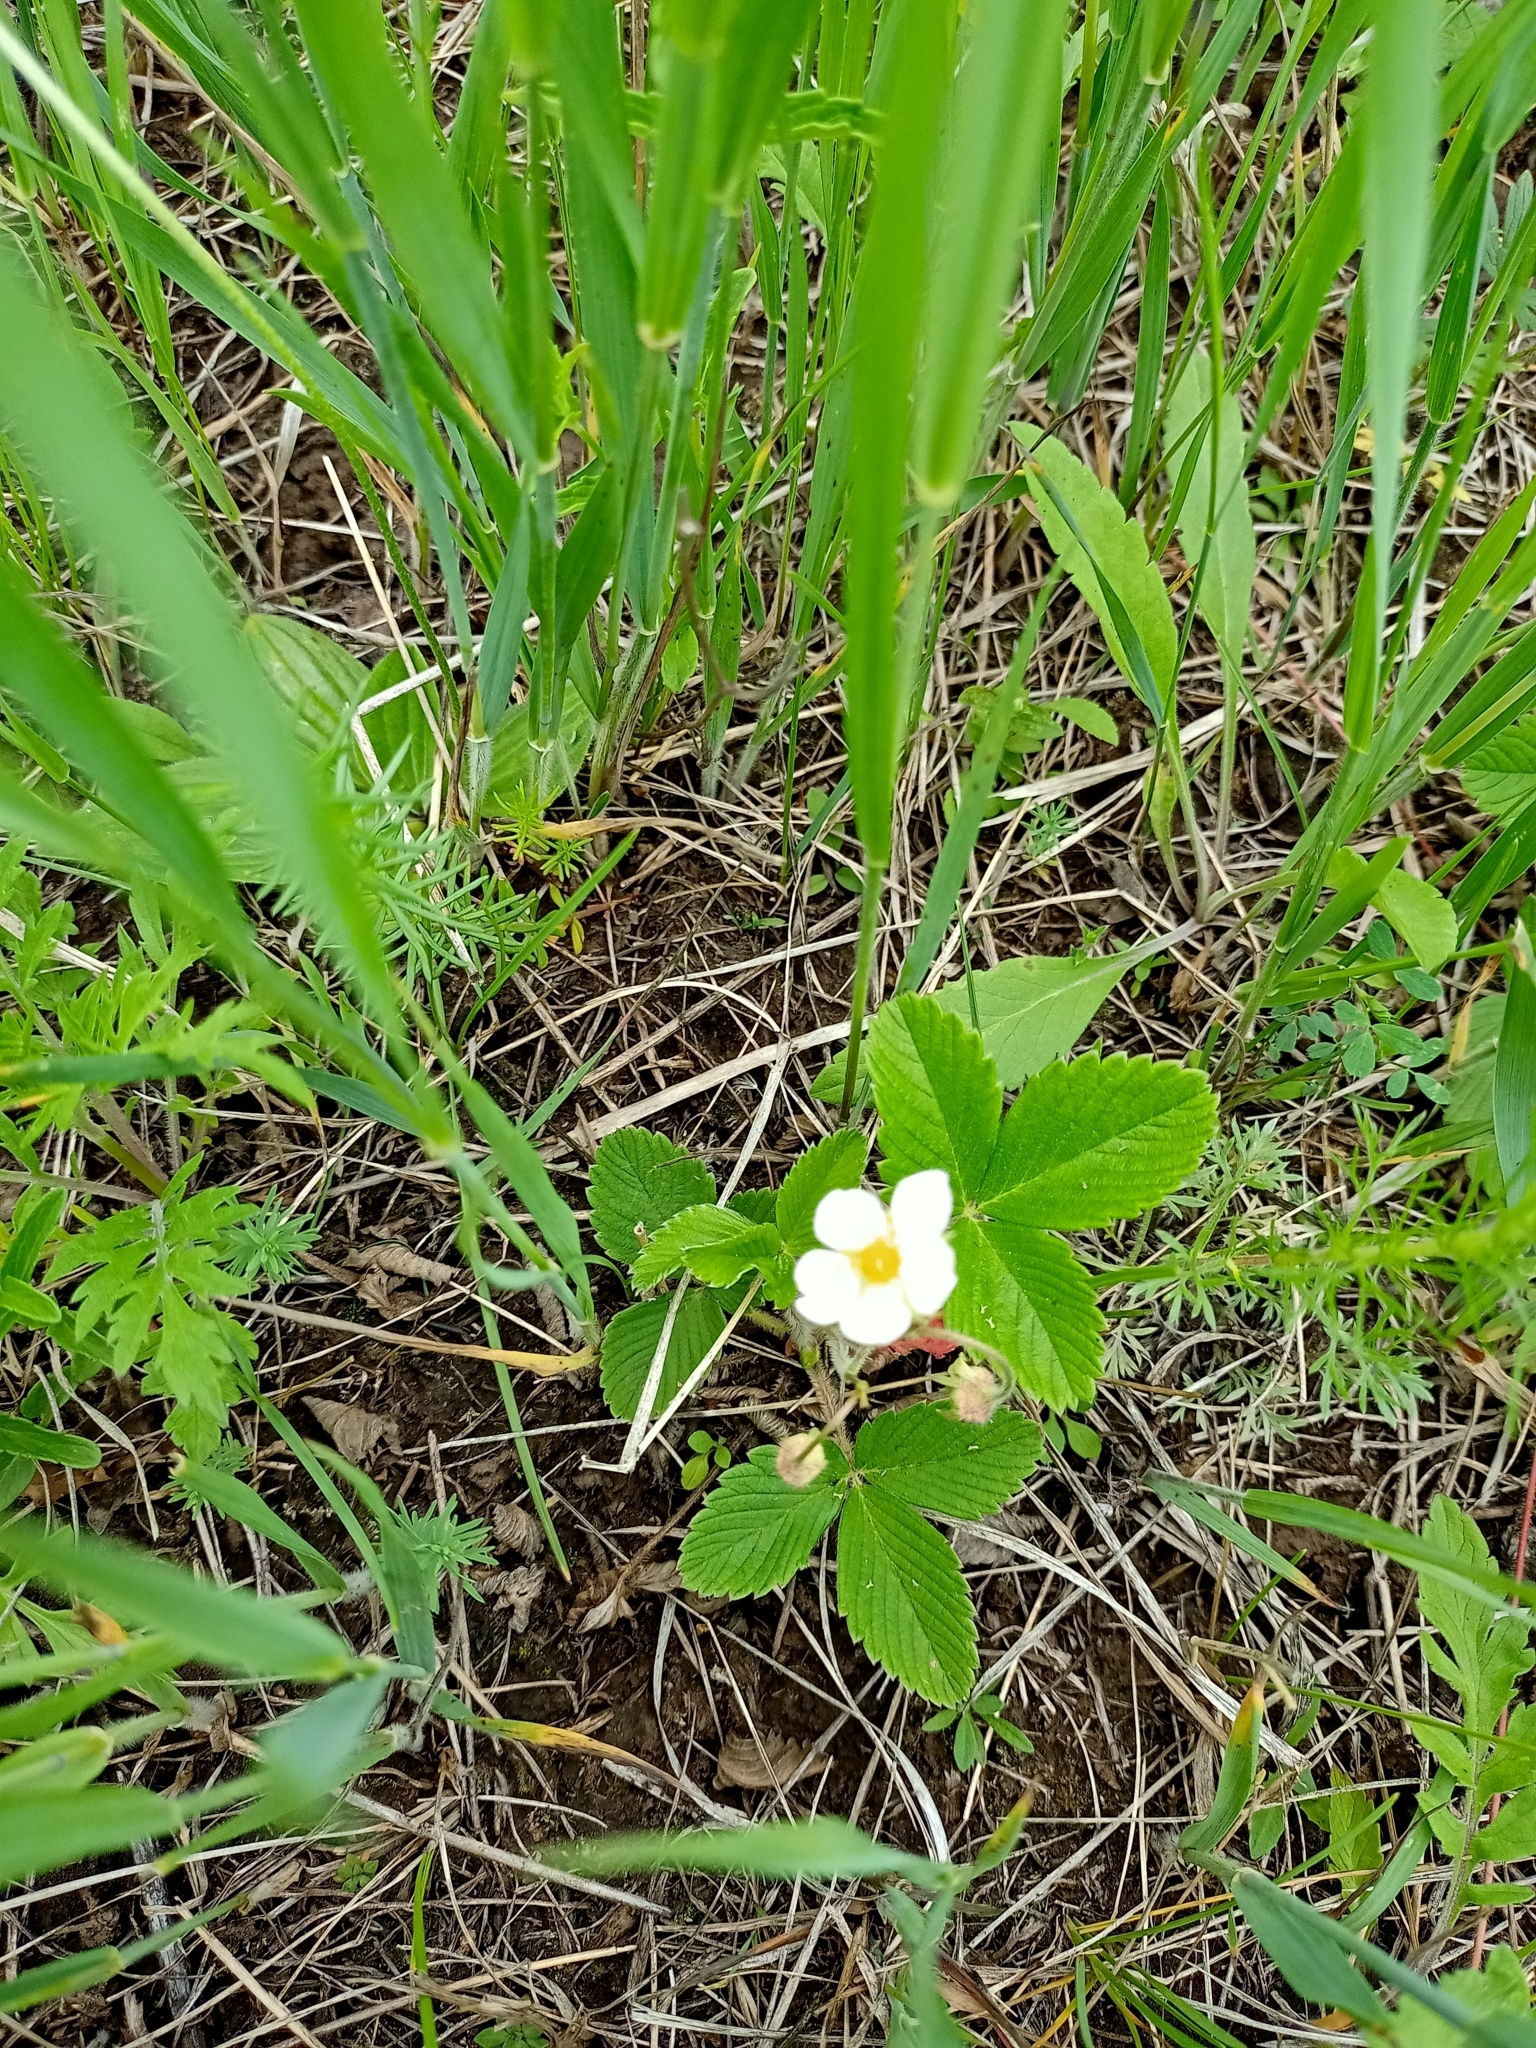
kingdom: Plantae
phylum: Tracheophyta
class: Magnoliopsida
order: Rosales
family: Rosaceae
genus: Fragaria
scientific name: Fragaria viridis
